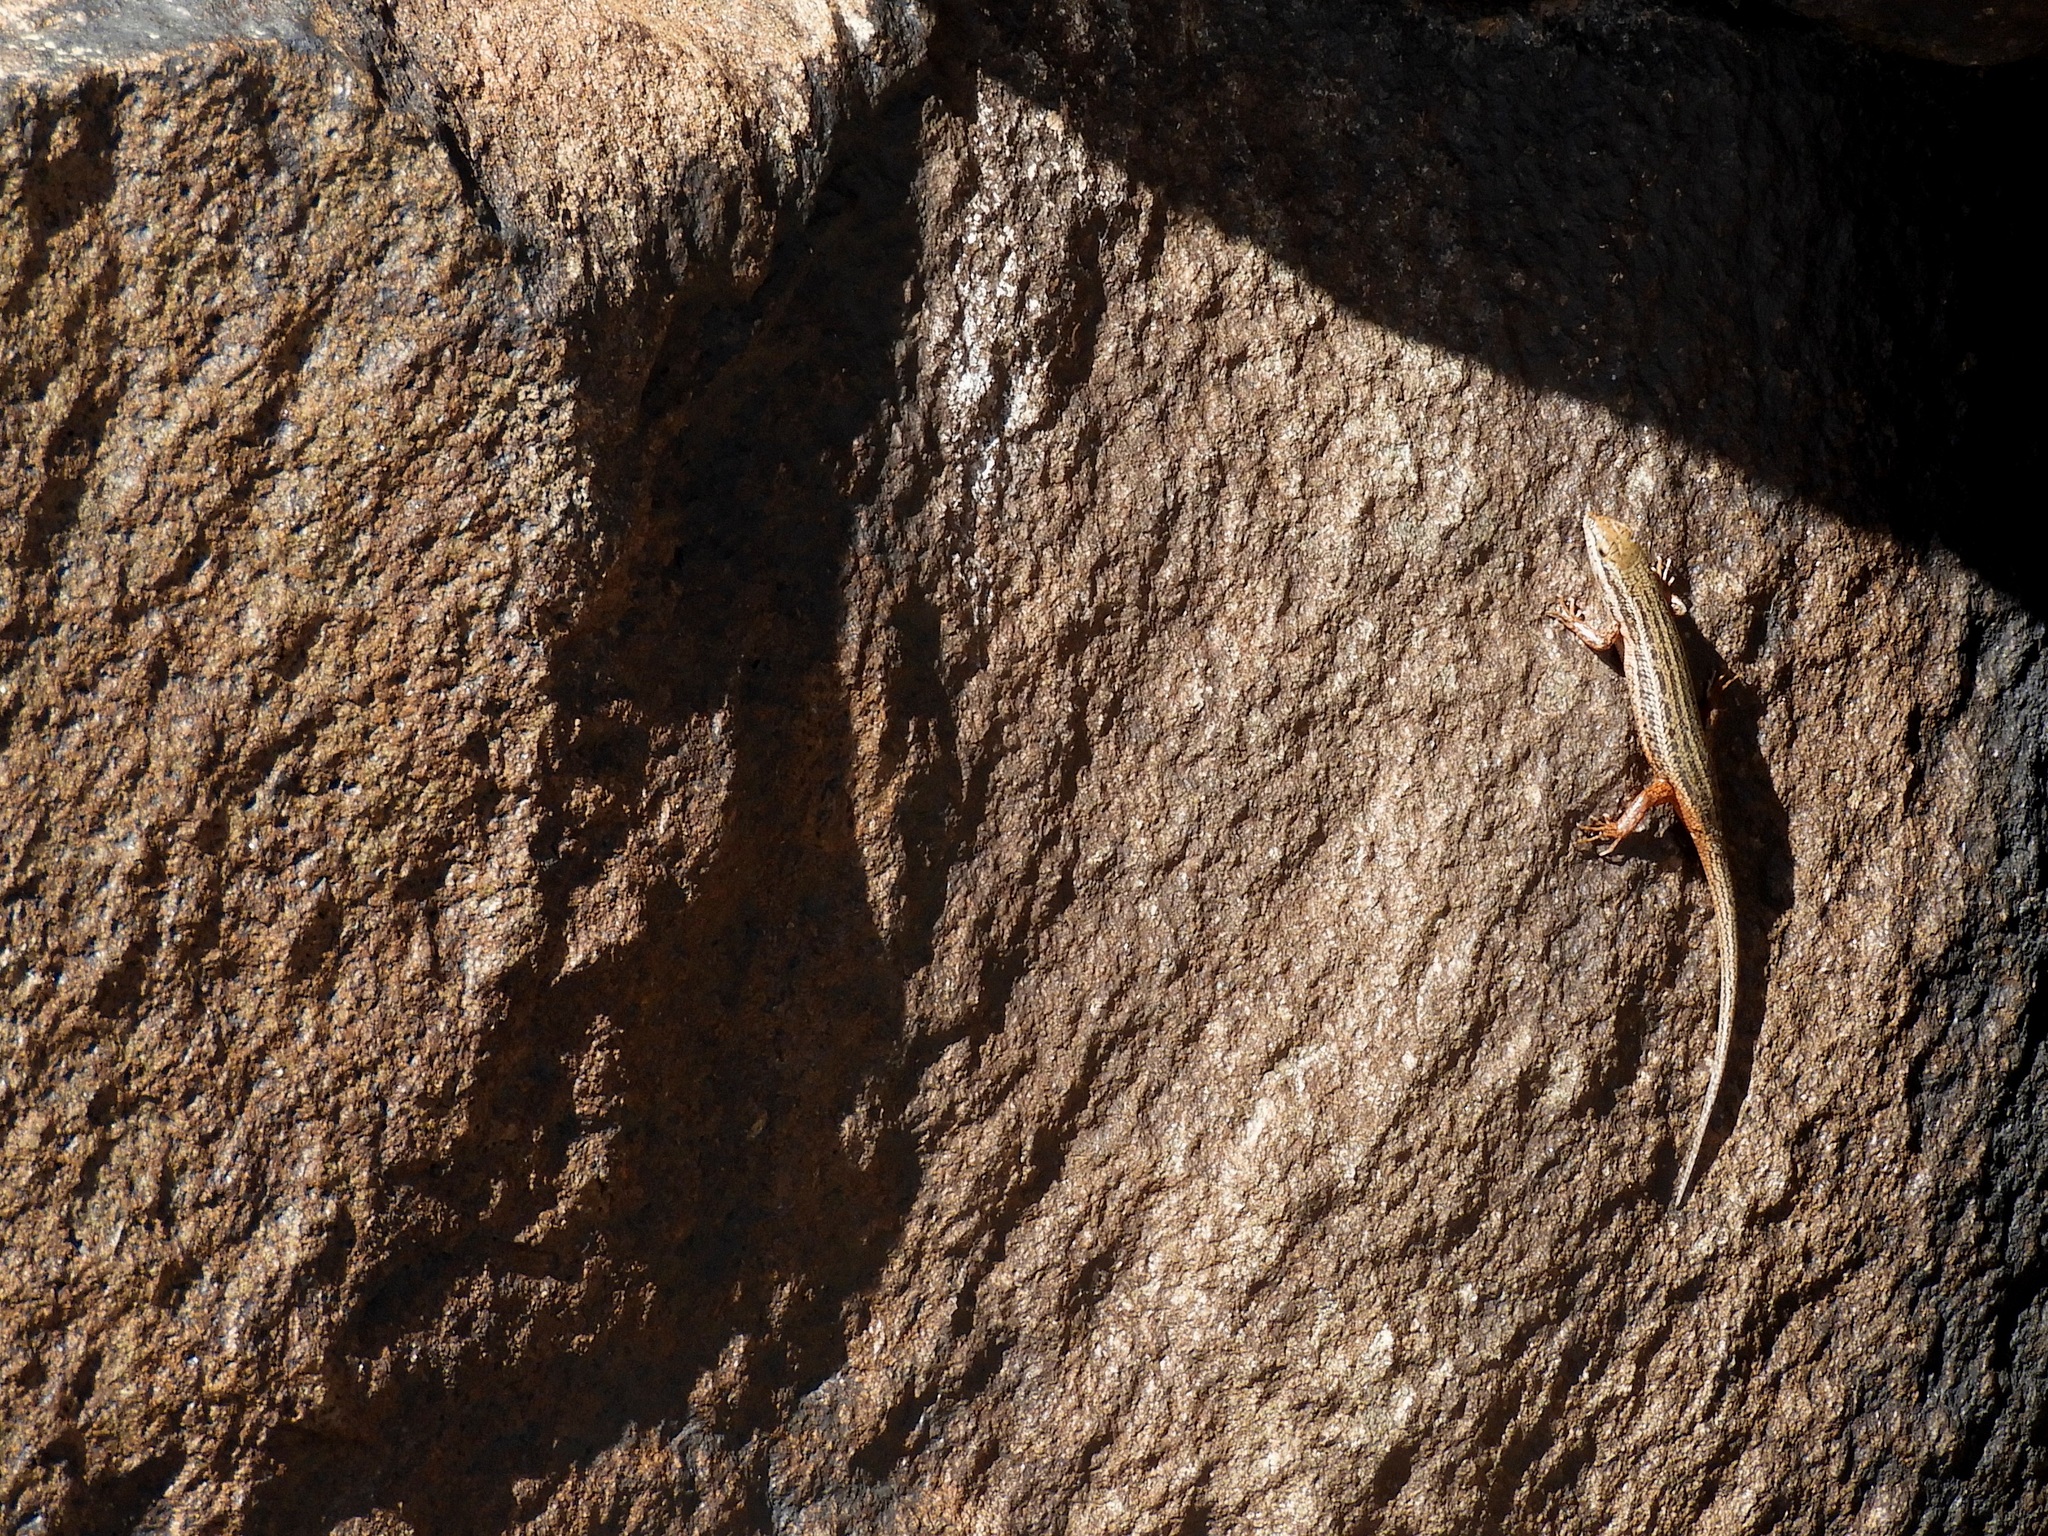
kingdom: Animalia
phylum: Chordata
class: Squamata
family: Scincidae
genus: Trachylepis
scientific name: Trachylepis variegata
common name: Variegated skink
